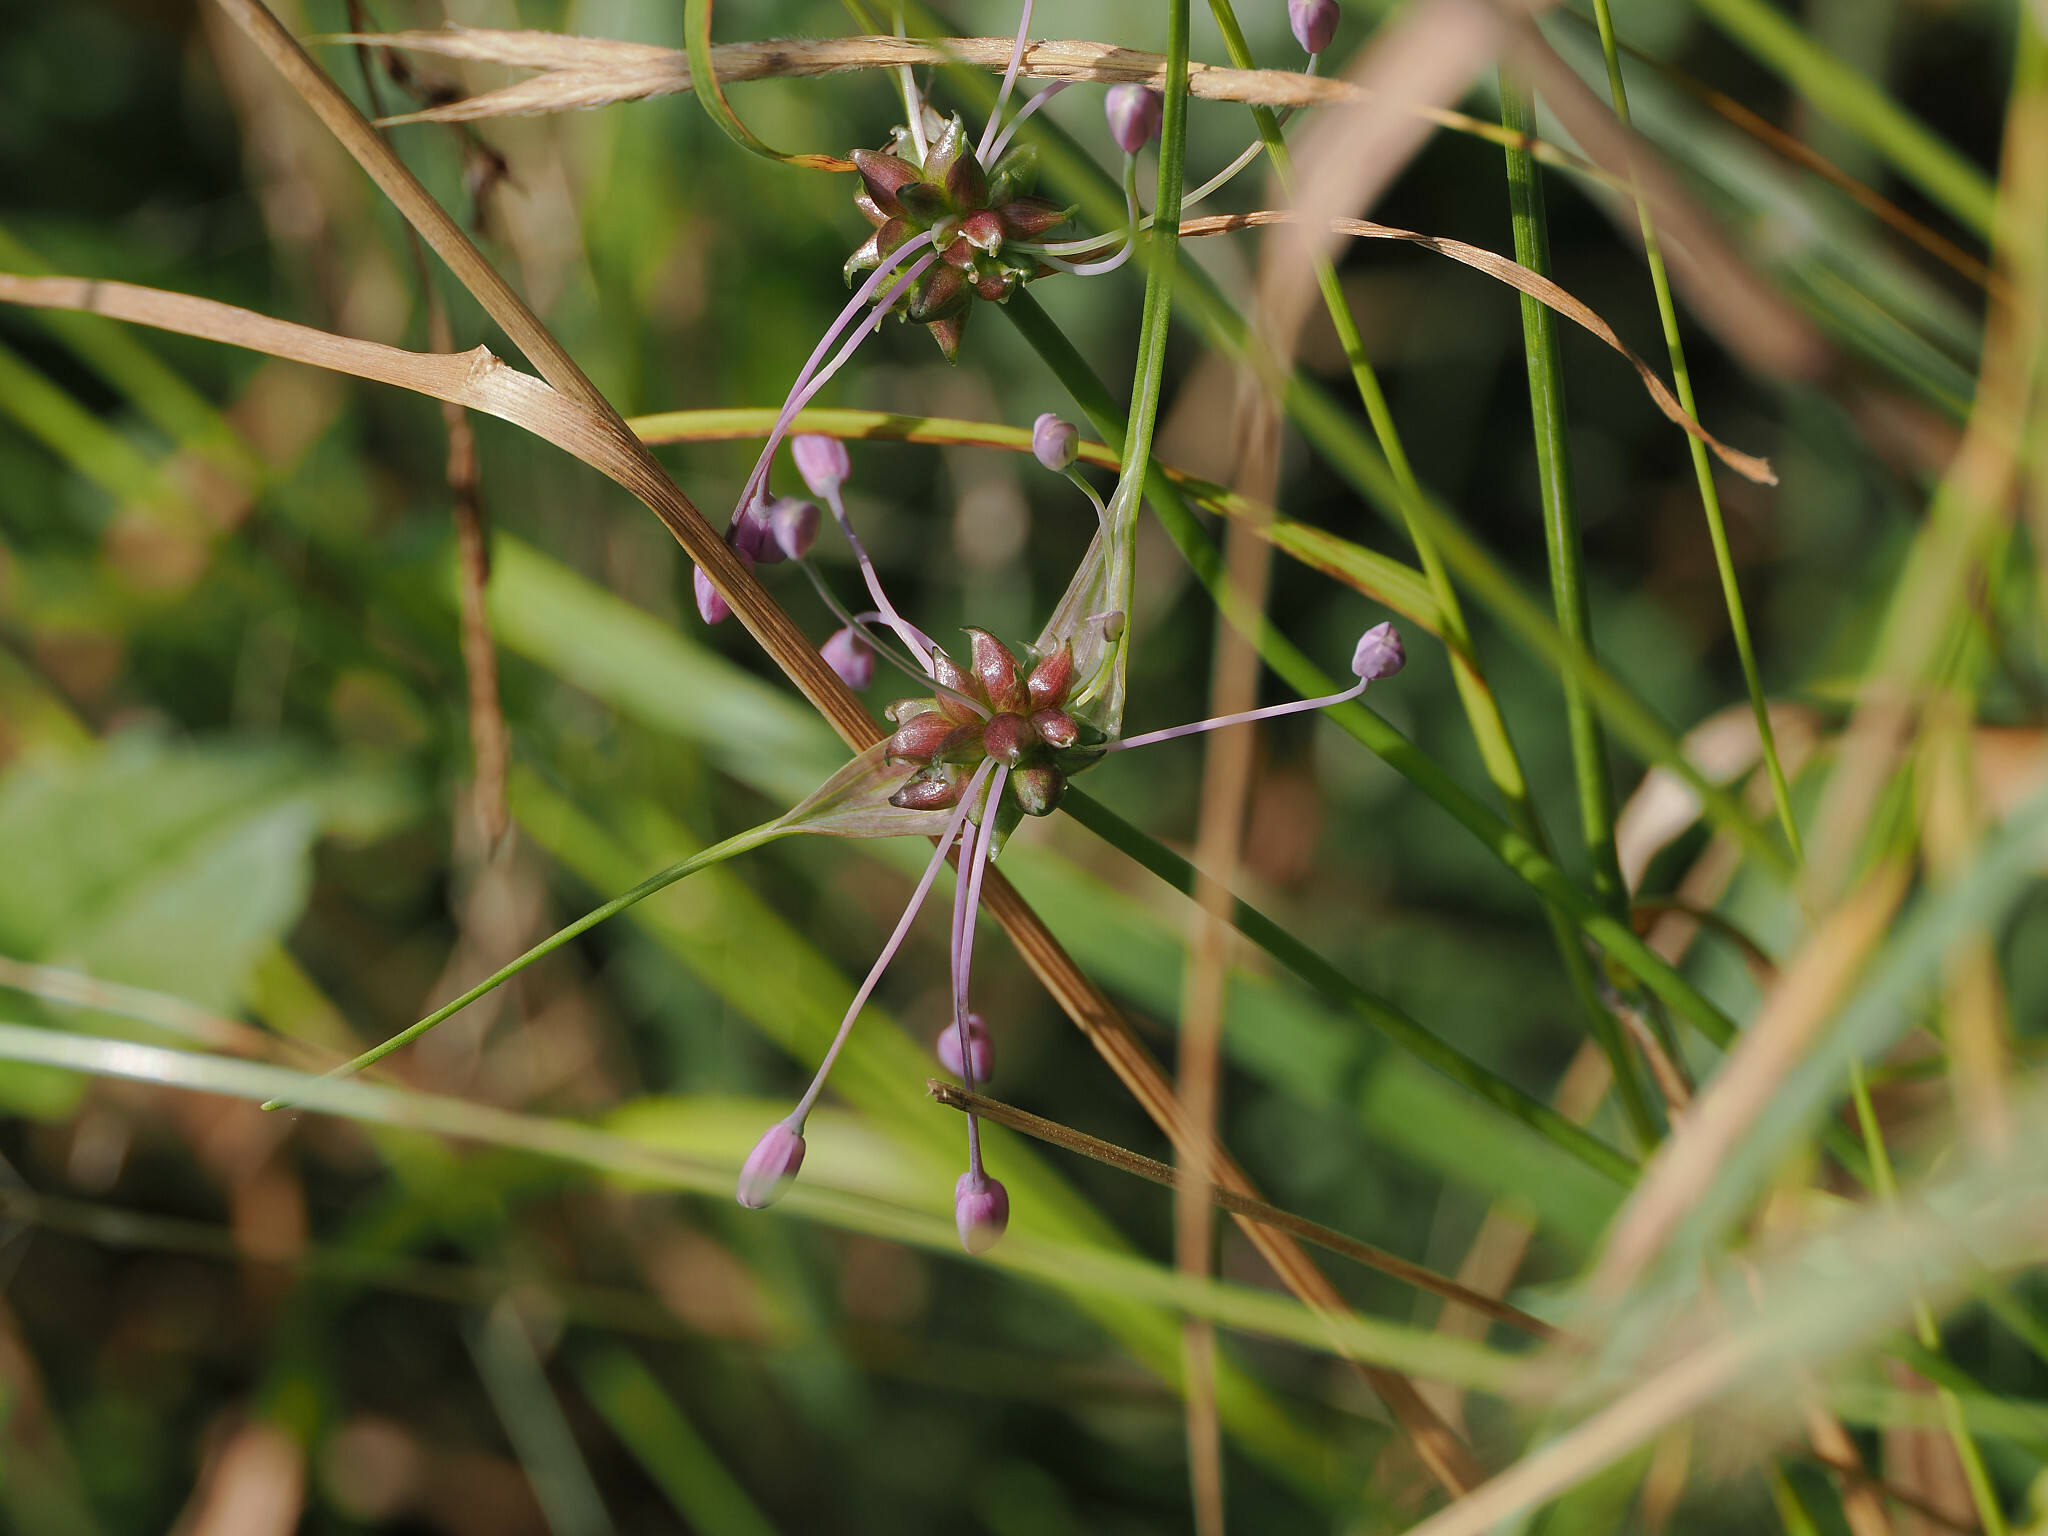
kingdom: Plantae
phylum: Tracheophyta
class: Liliopsida
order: Asparagales
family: Amaryllidaceae
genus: Allium
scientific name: Allium carinatum
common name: Keeled garlic
